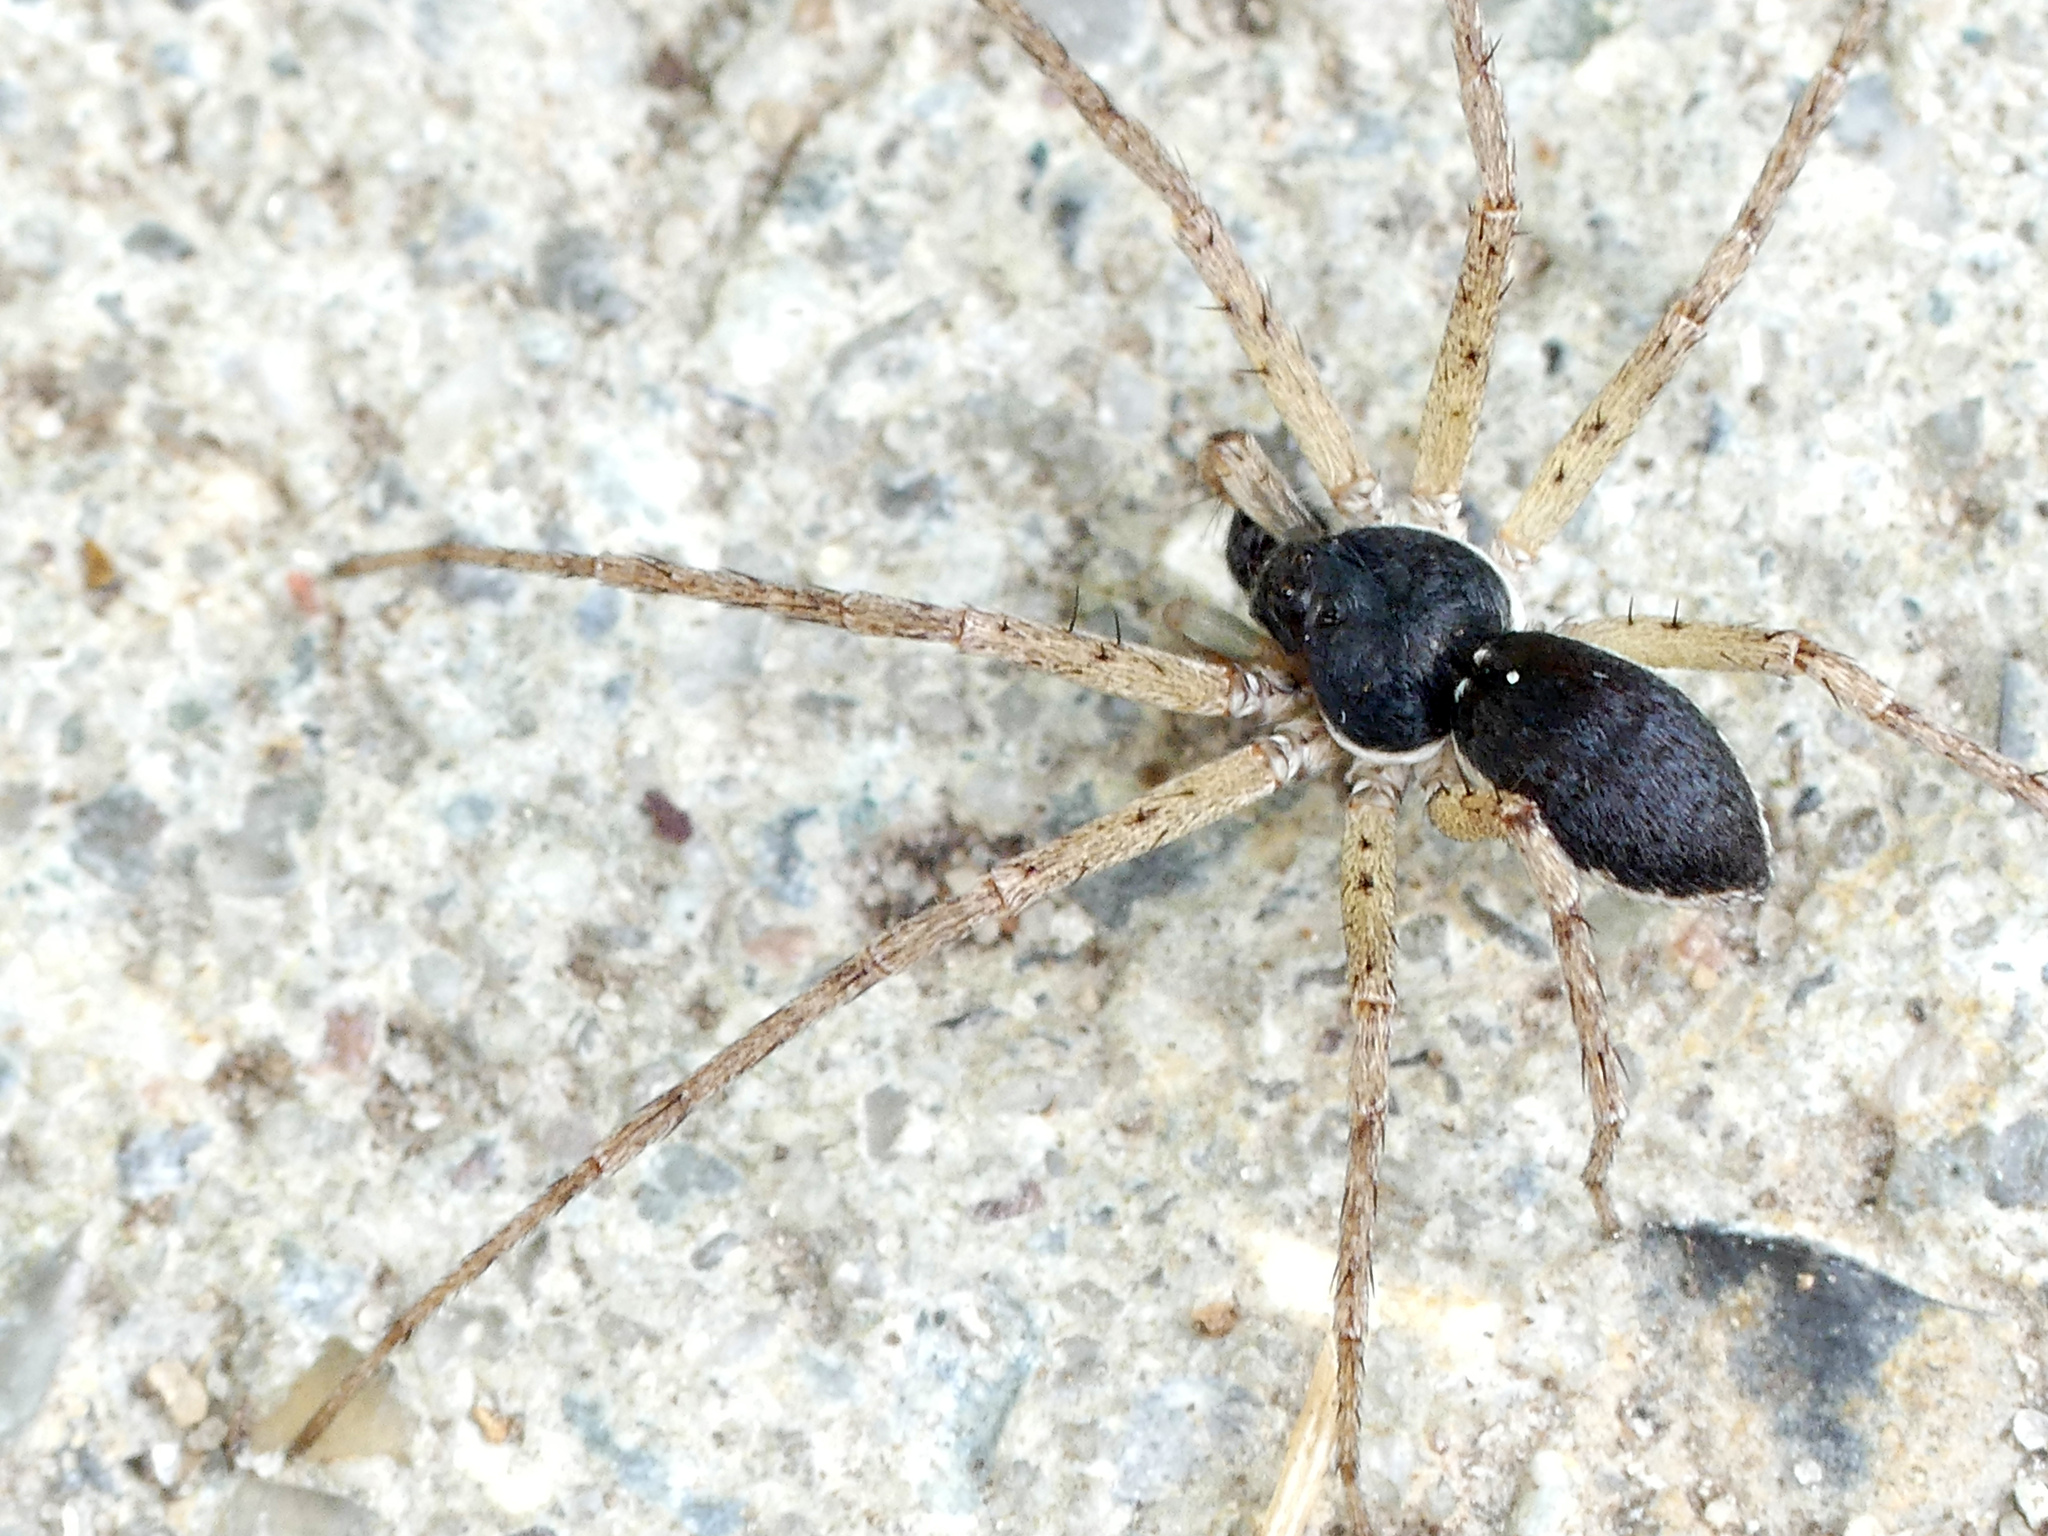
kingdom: Animalia
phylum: Arthropoda
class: Arachnida
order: Araneae
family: Philodromidae
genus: Philodromus
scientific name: Philodromus dispar
